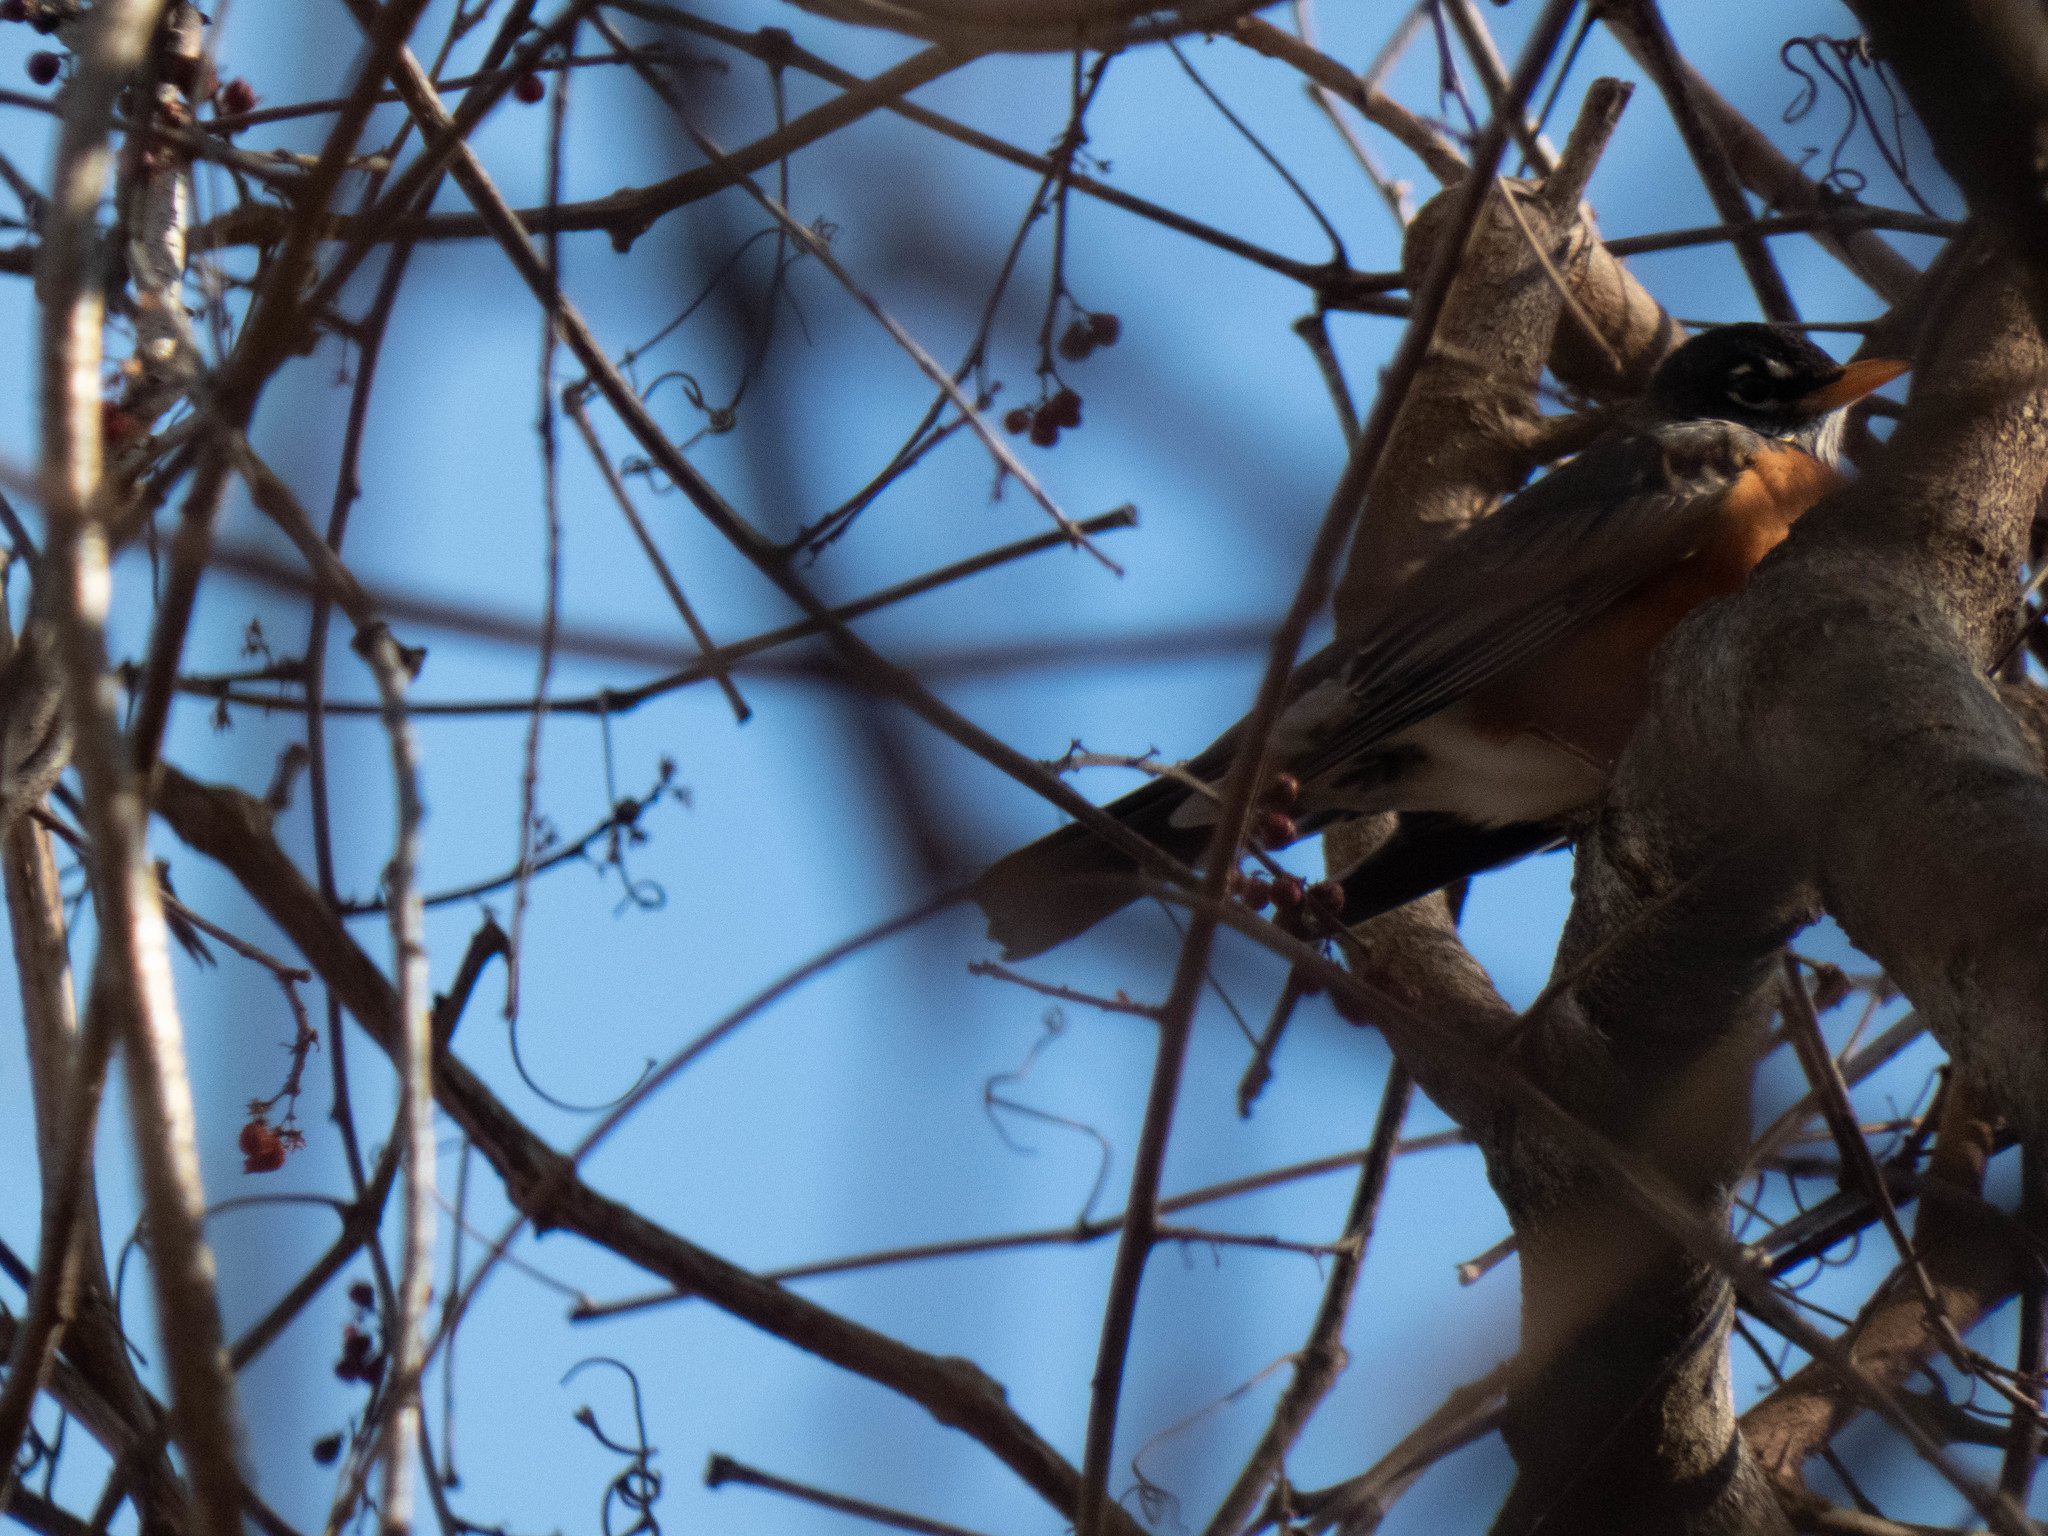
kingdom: Animalia
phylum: Chordata
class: Aves
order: Passeriformes
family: Turdidae
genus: Turdus
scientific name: Turdus migratorius
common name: American robin
